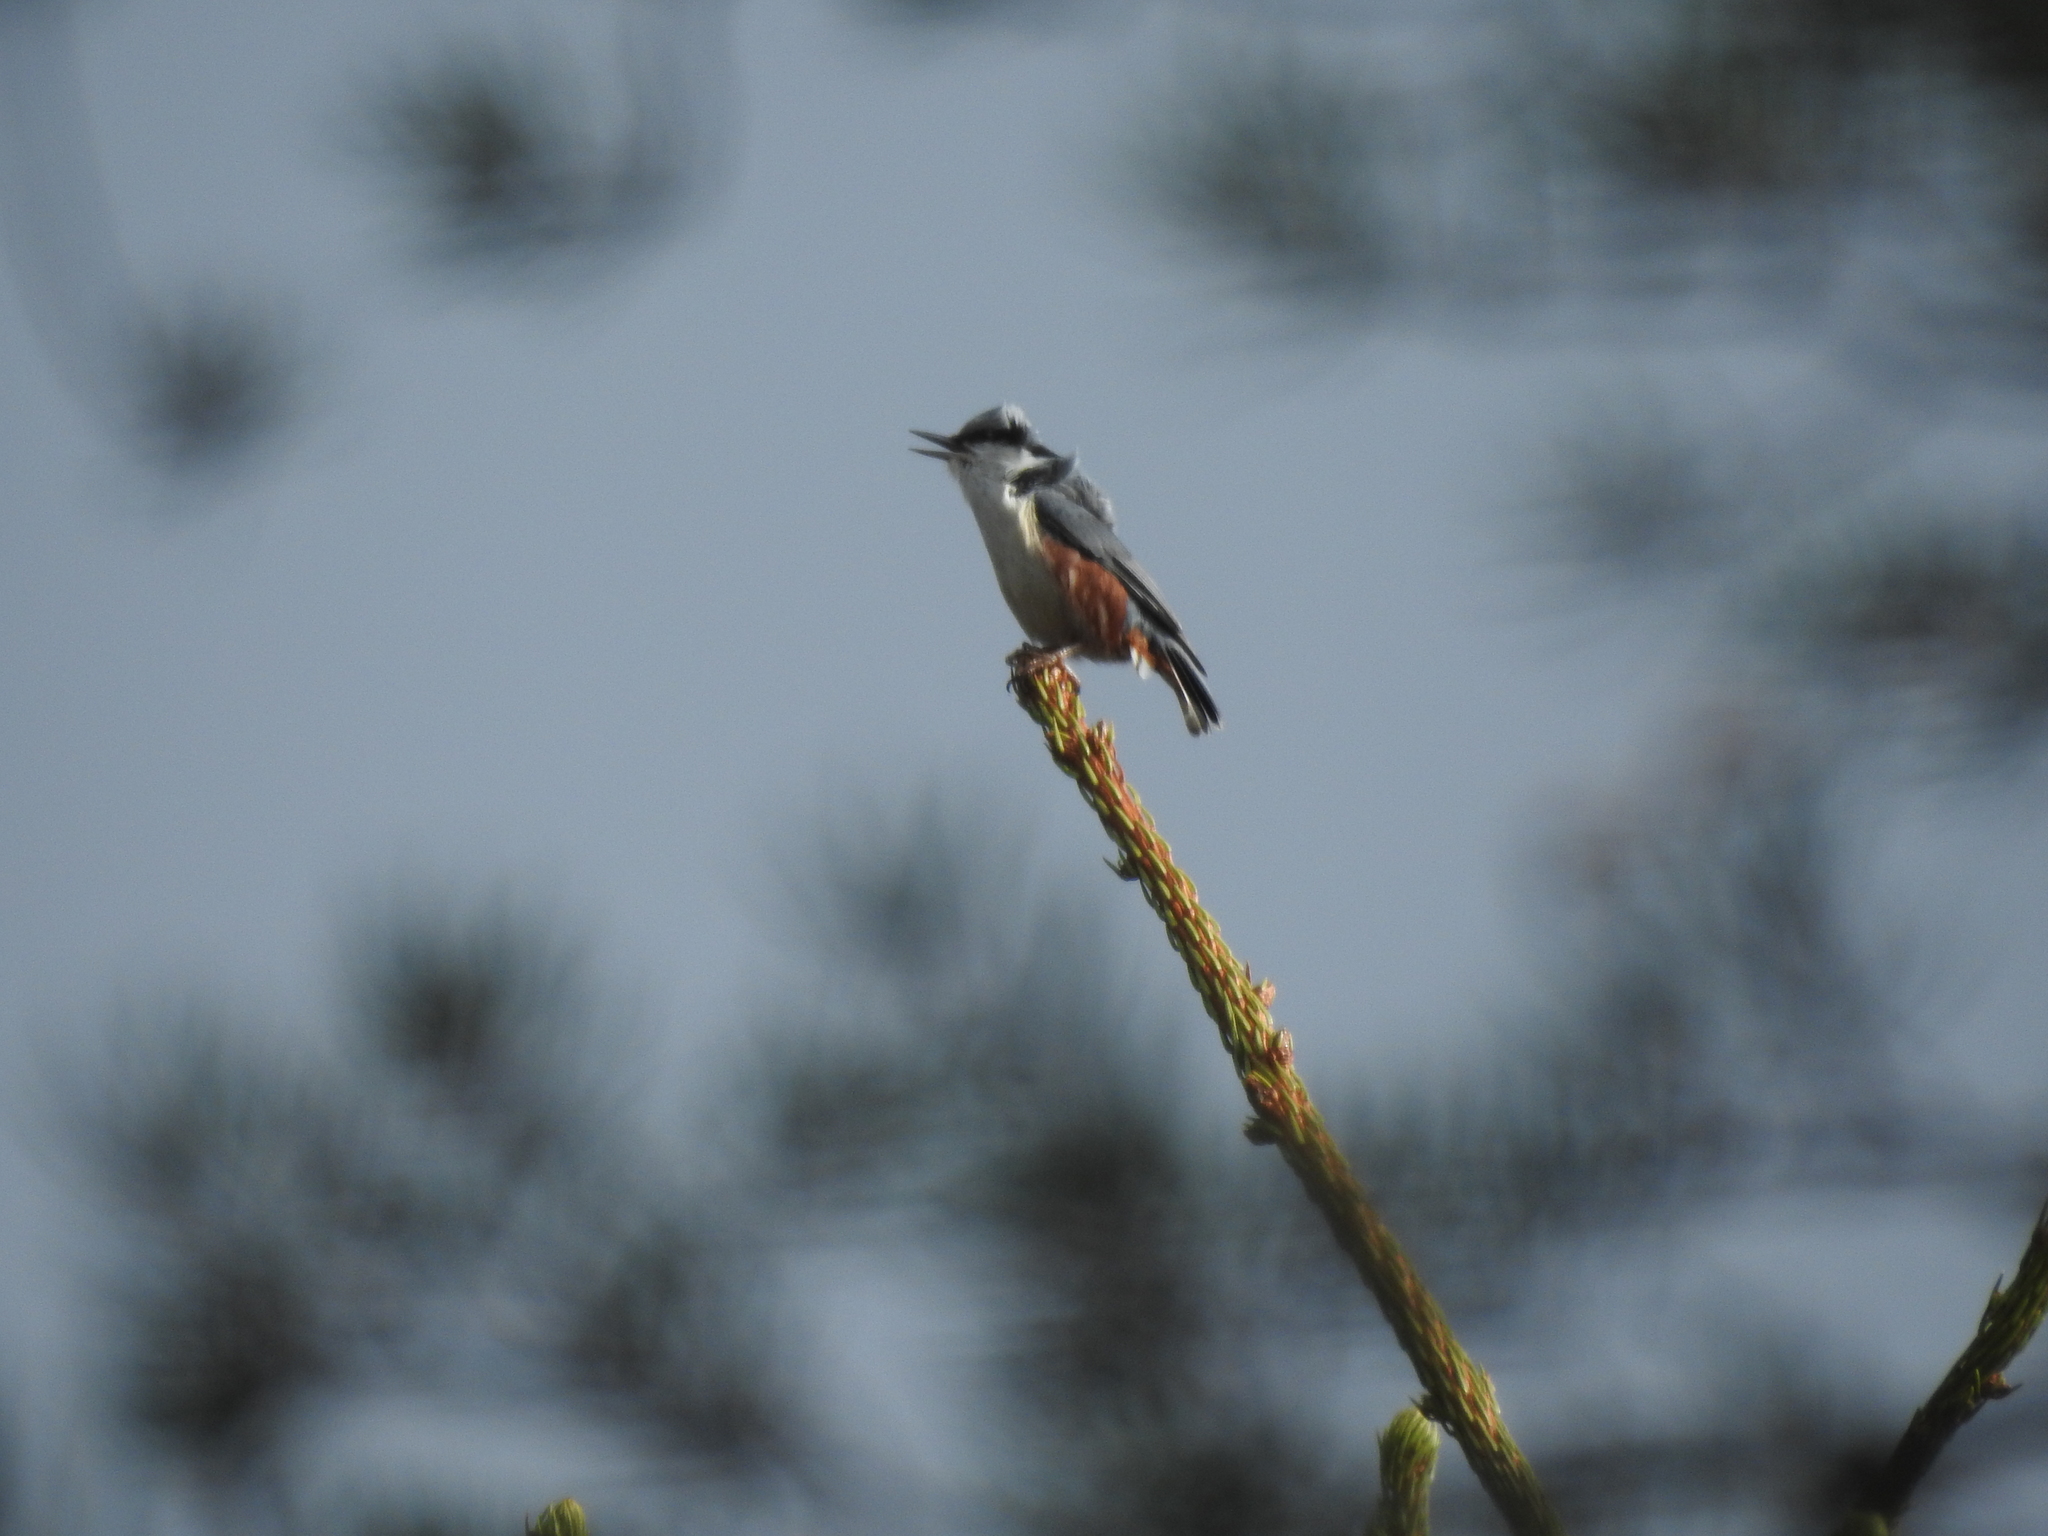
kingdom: Animalia
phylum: Chordata
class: Aves
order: Passeriformes
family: Sittidae
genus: Sitta
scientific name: Sitta europaea
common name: Eurasian nuthatch
